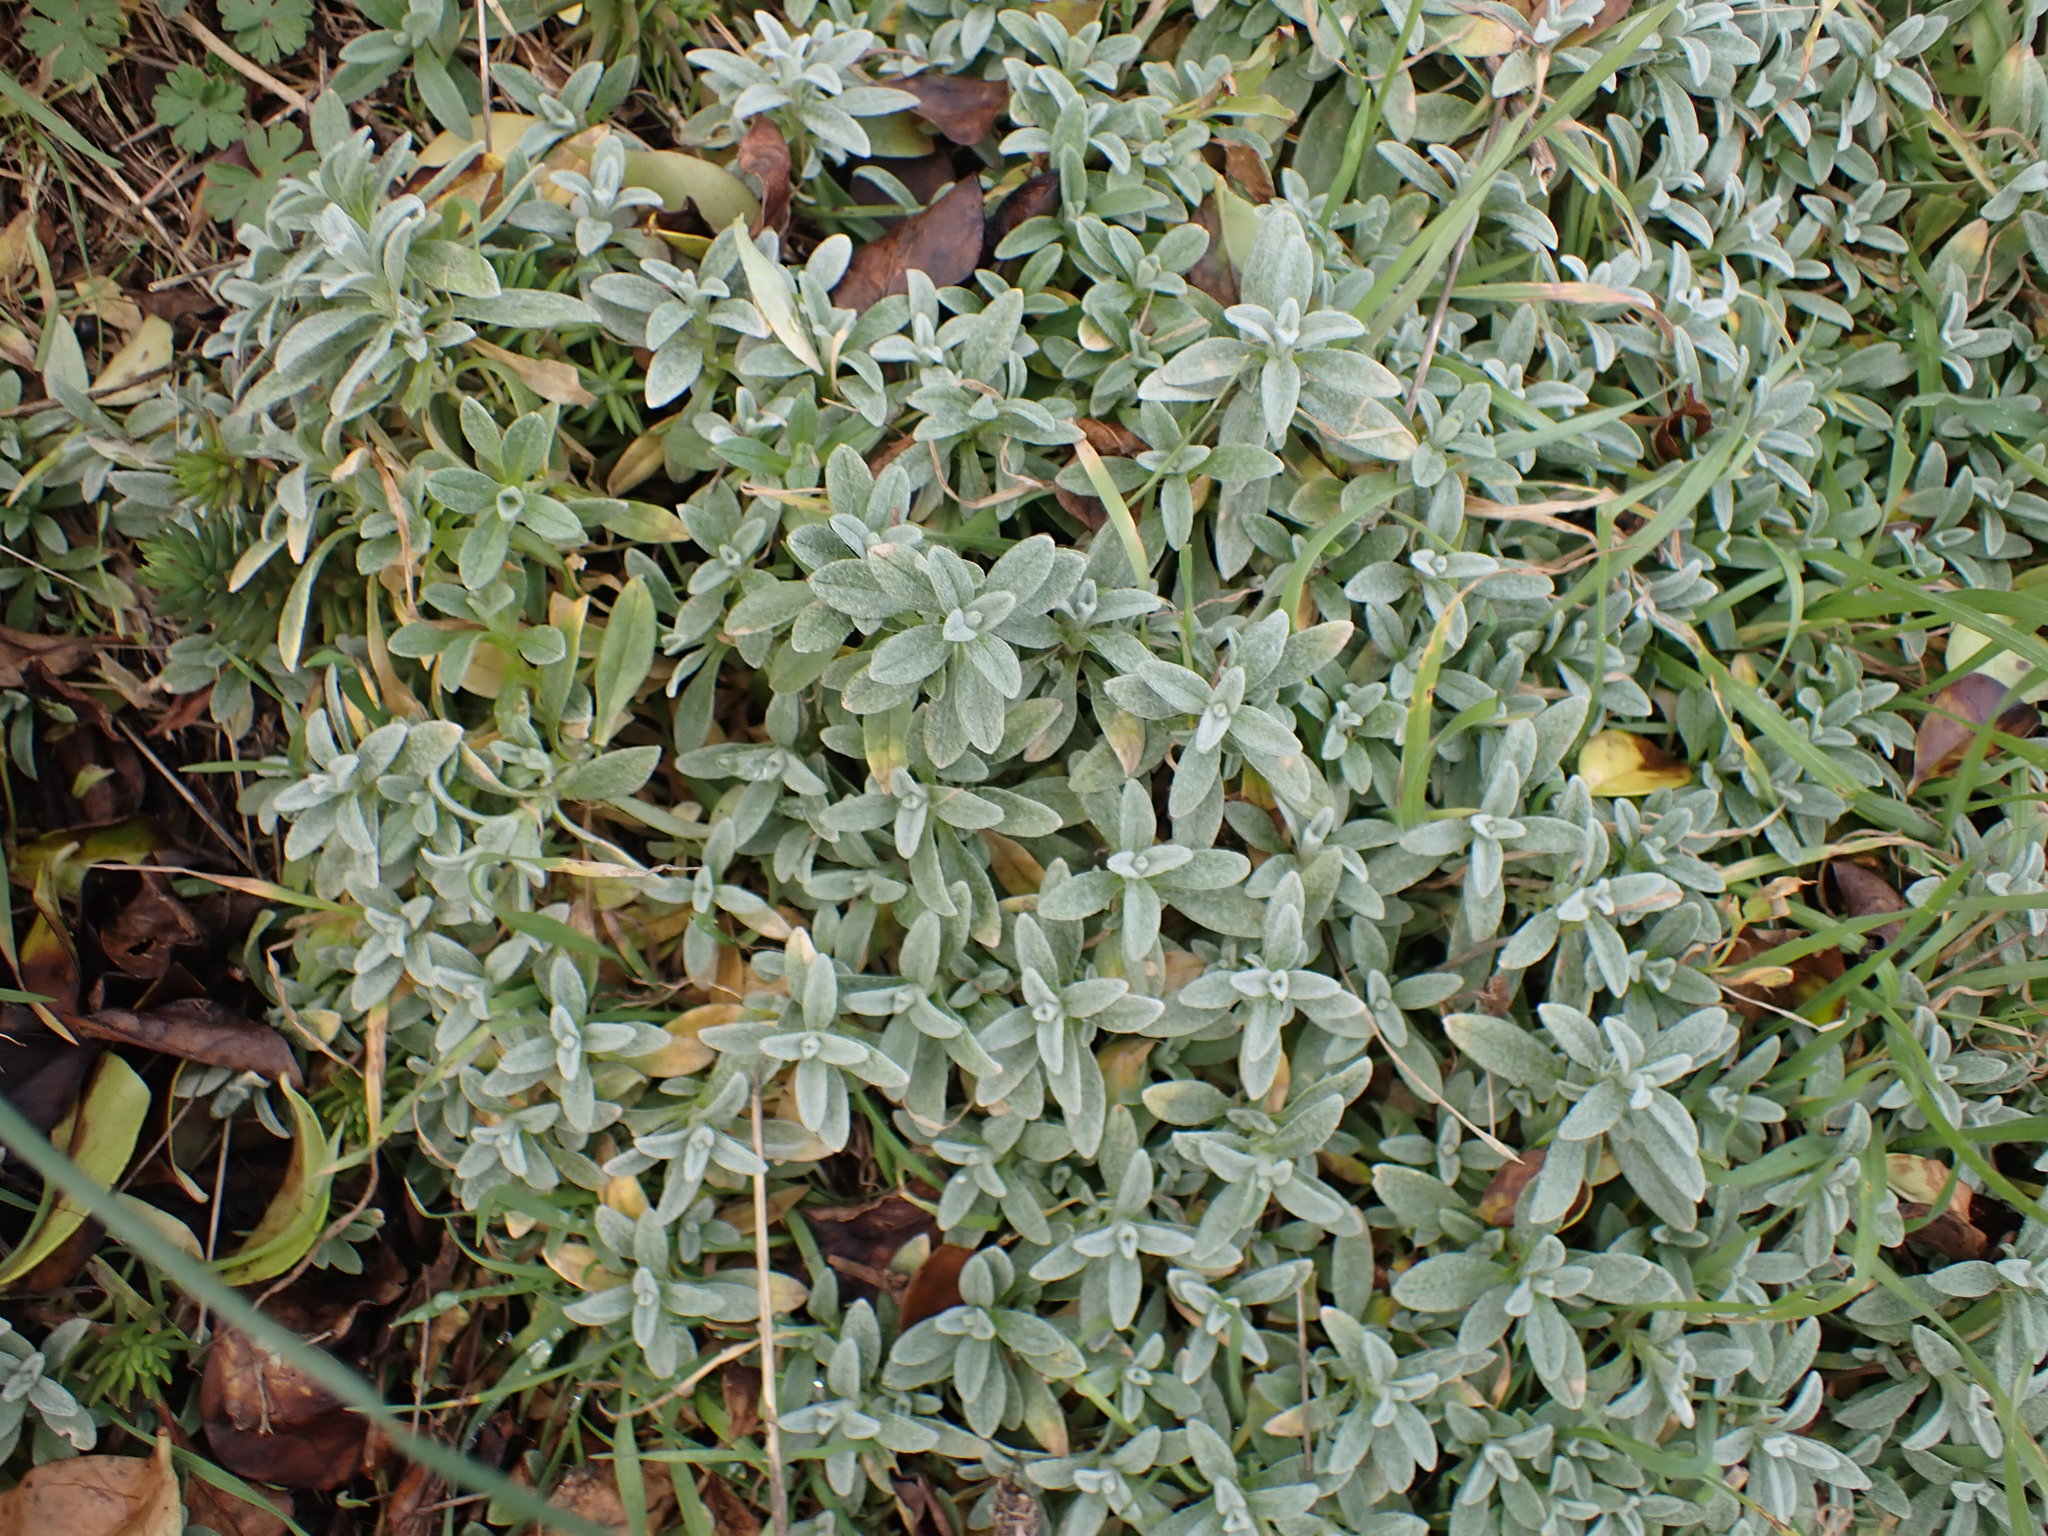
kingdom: Plantae
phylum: Tracheophyta
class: Magnoliopsida
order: Caryophyllales
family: Caryophyllaceae
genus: Cerastium
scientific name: Cerastium tomentosum
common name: Snow-in-summer
